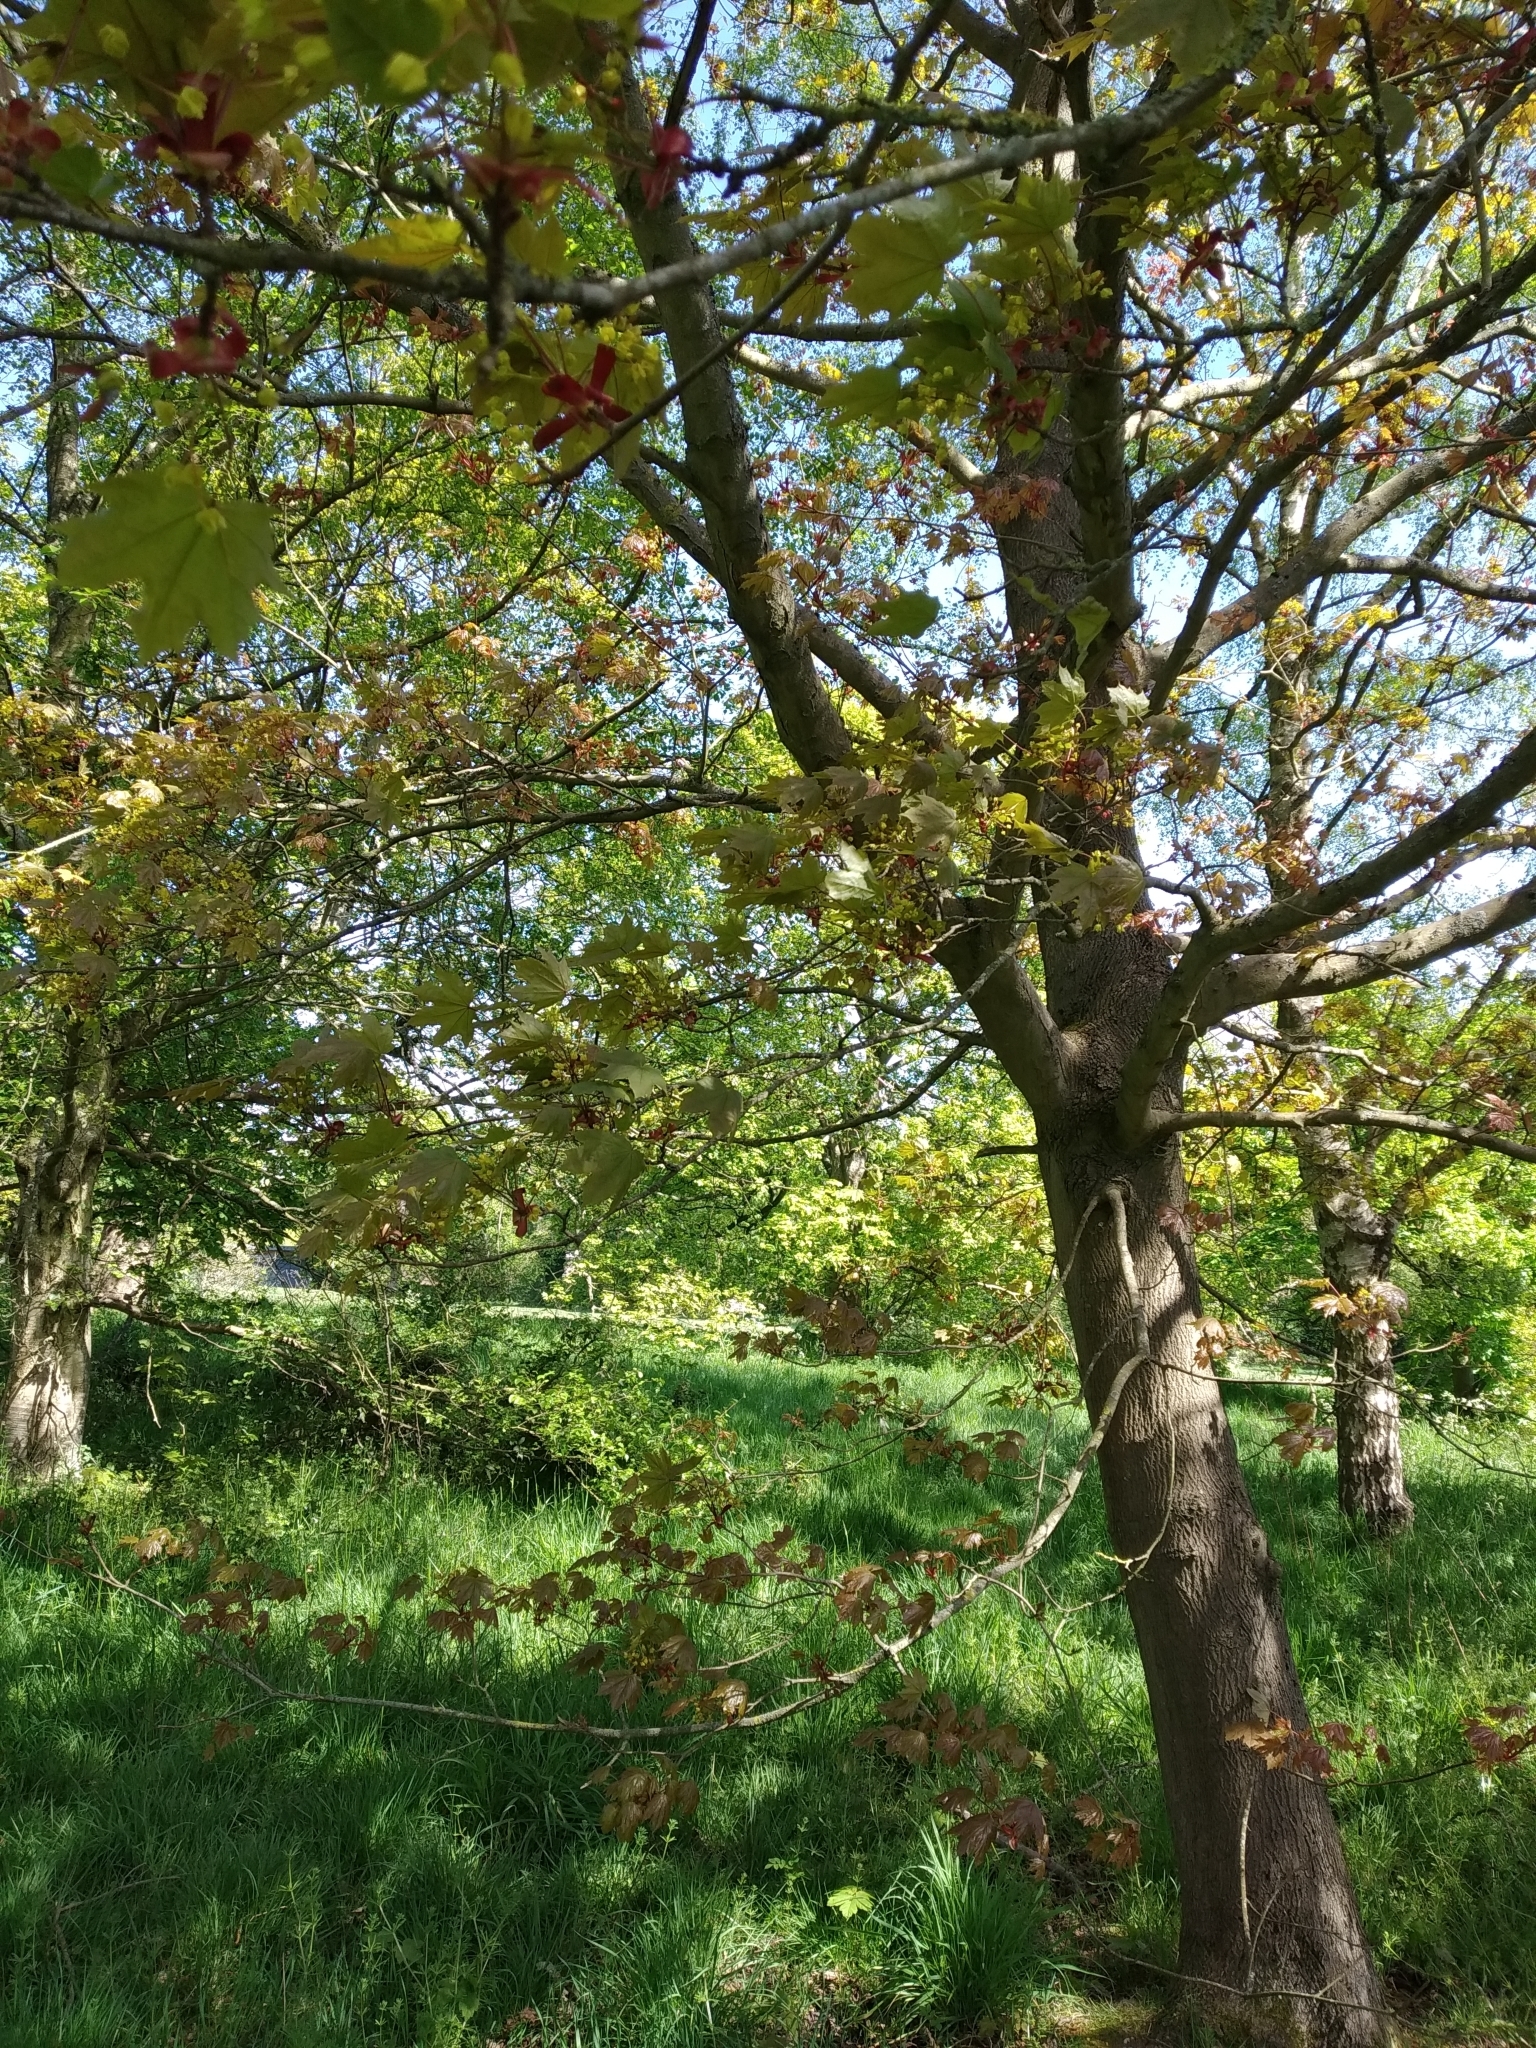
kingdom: Plantae
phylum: Tracheophyta
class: Magnoliopsida
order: Sapindales
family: Sapindaceae
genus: Acer
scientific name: Acer pseudoplatanus
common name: Sycamore
